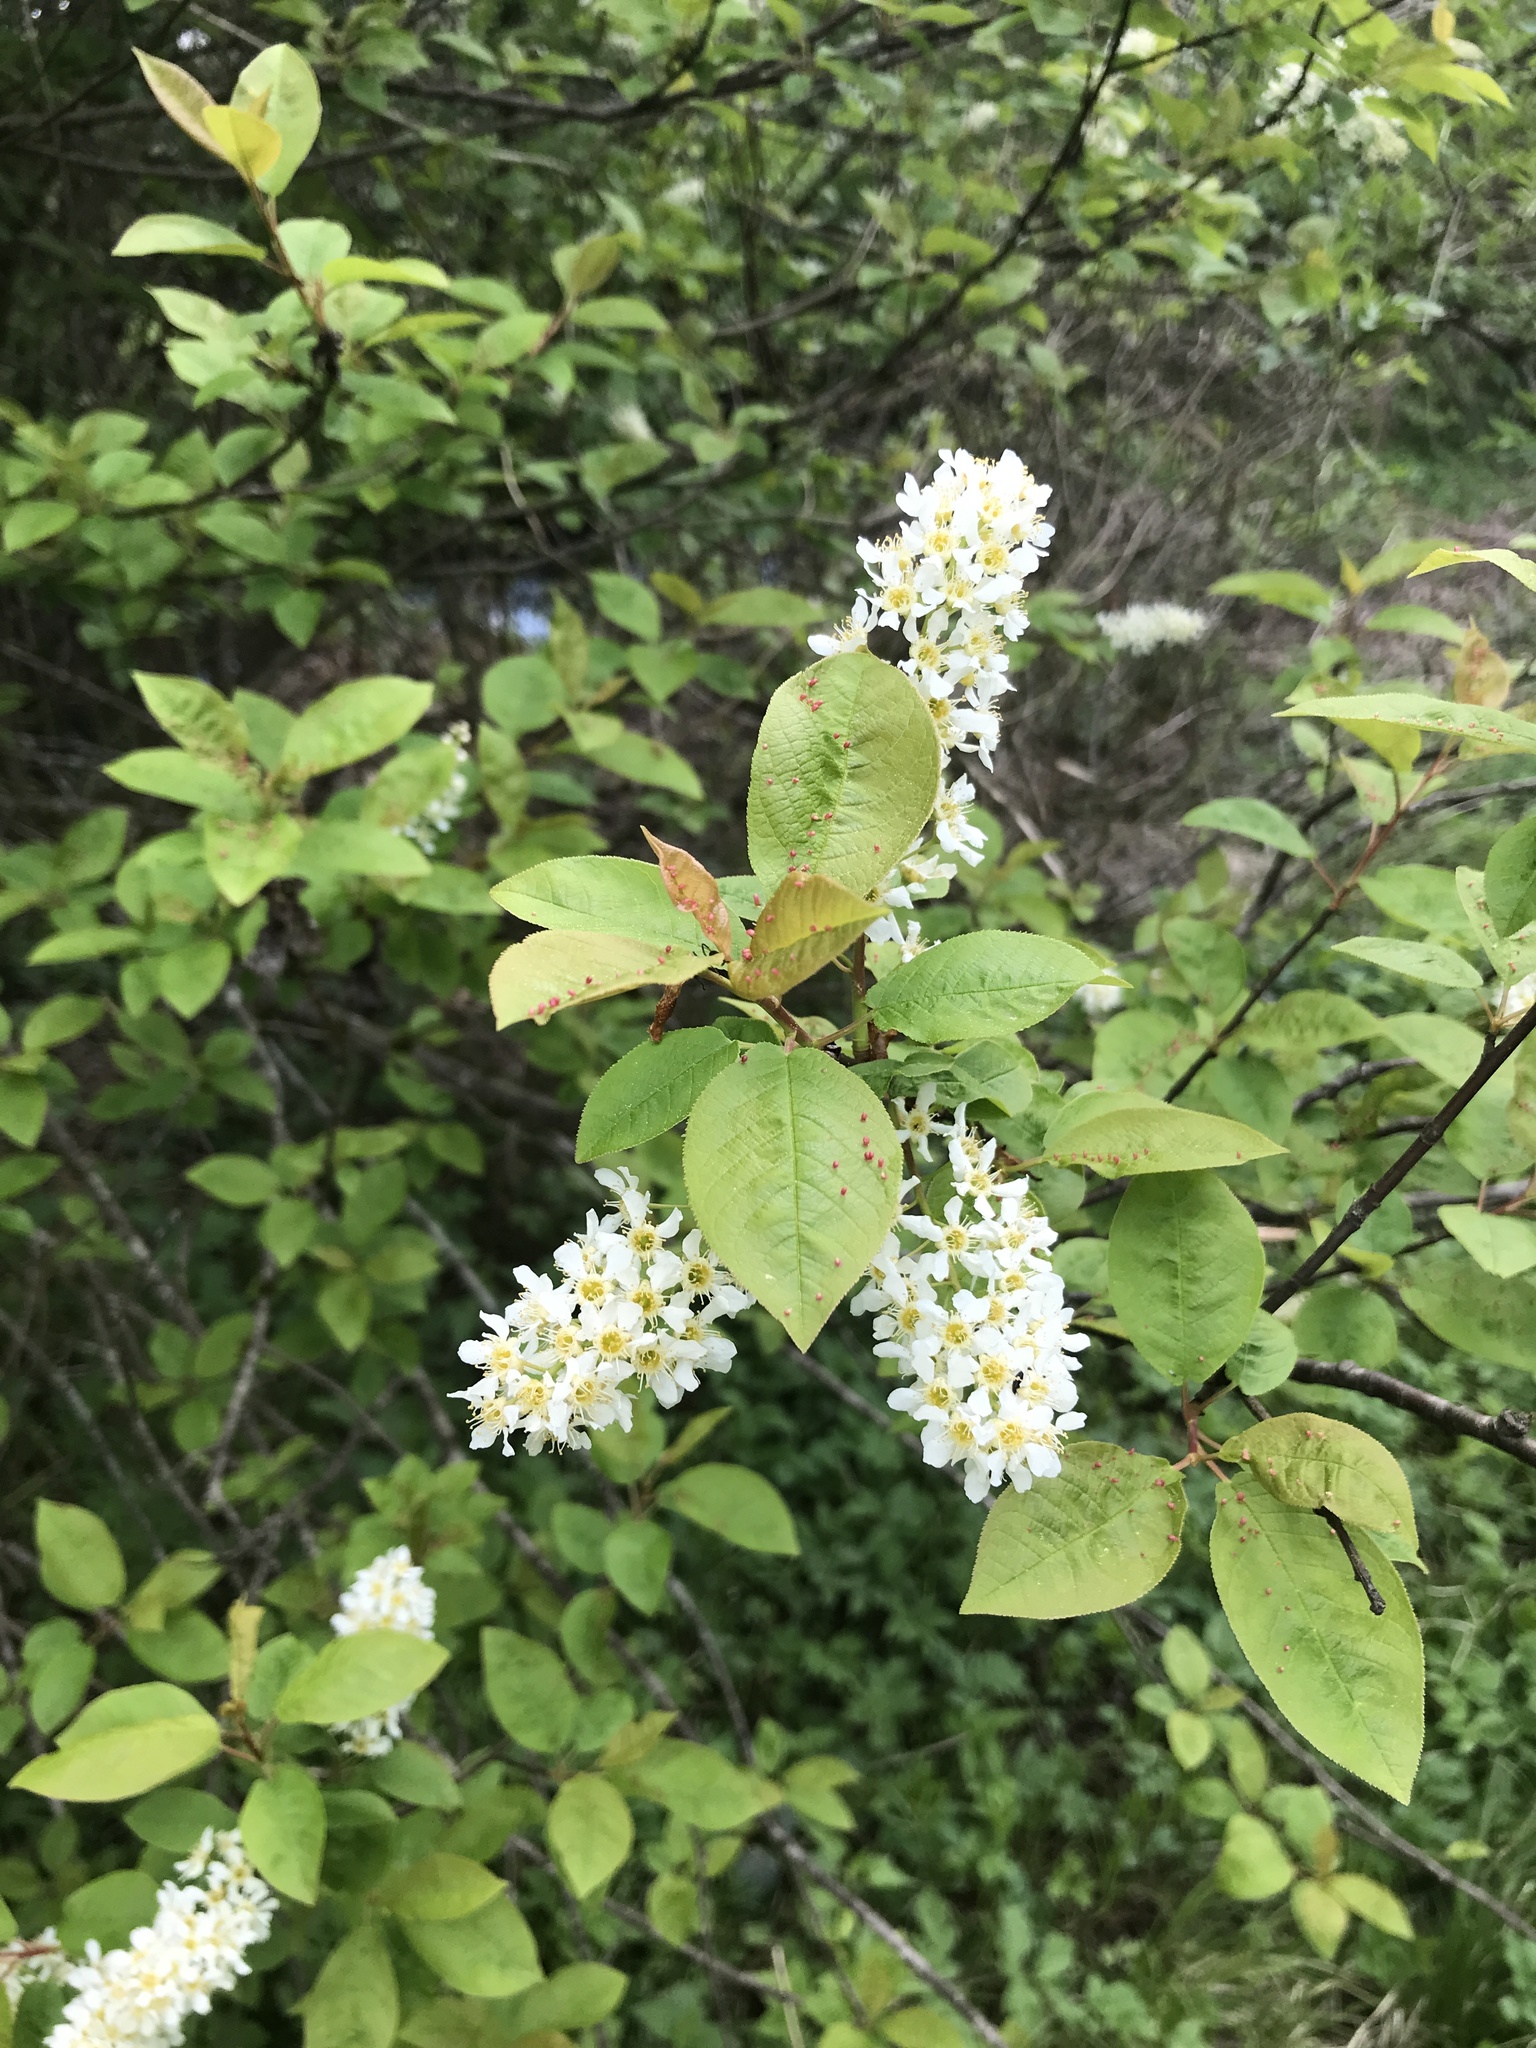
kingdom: Plantae
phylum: Tracheophyta
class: Magnoliopsida
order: Rosales
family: Rosaceae
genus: Prunus
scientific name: Prunus padus
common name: Bird cherry
